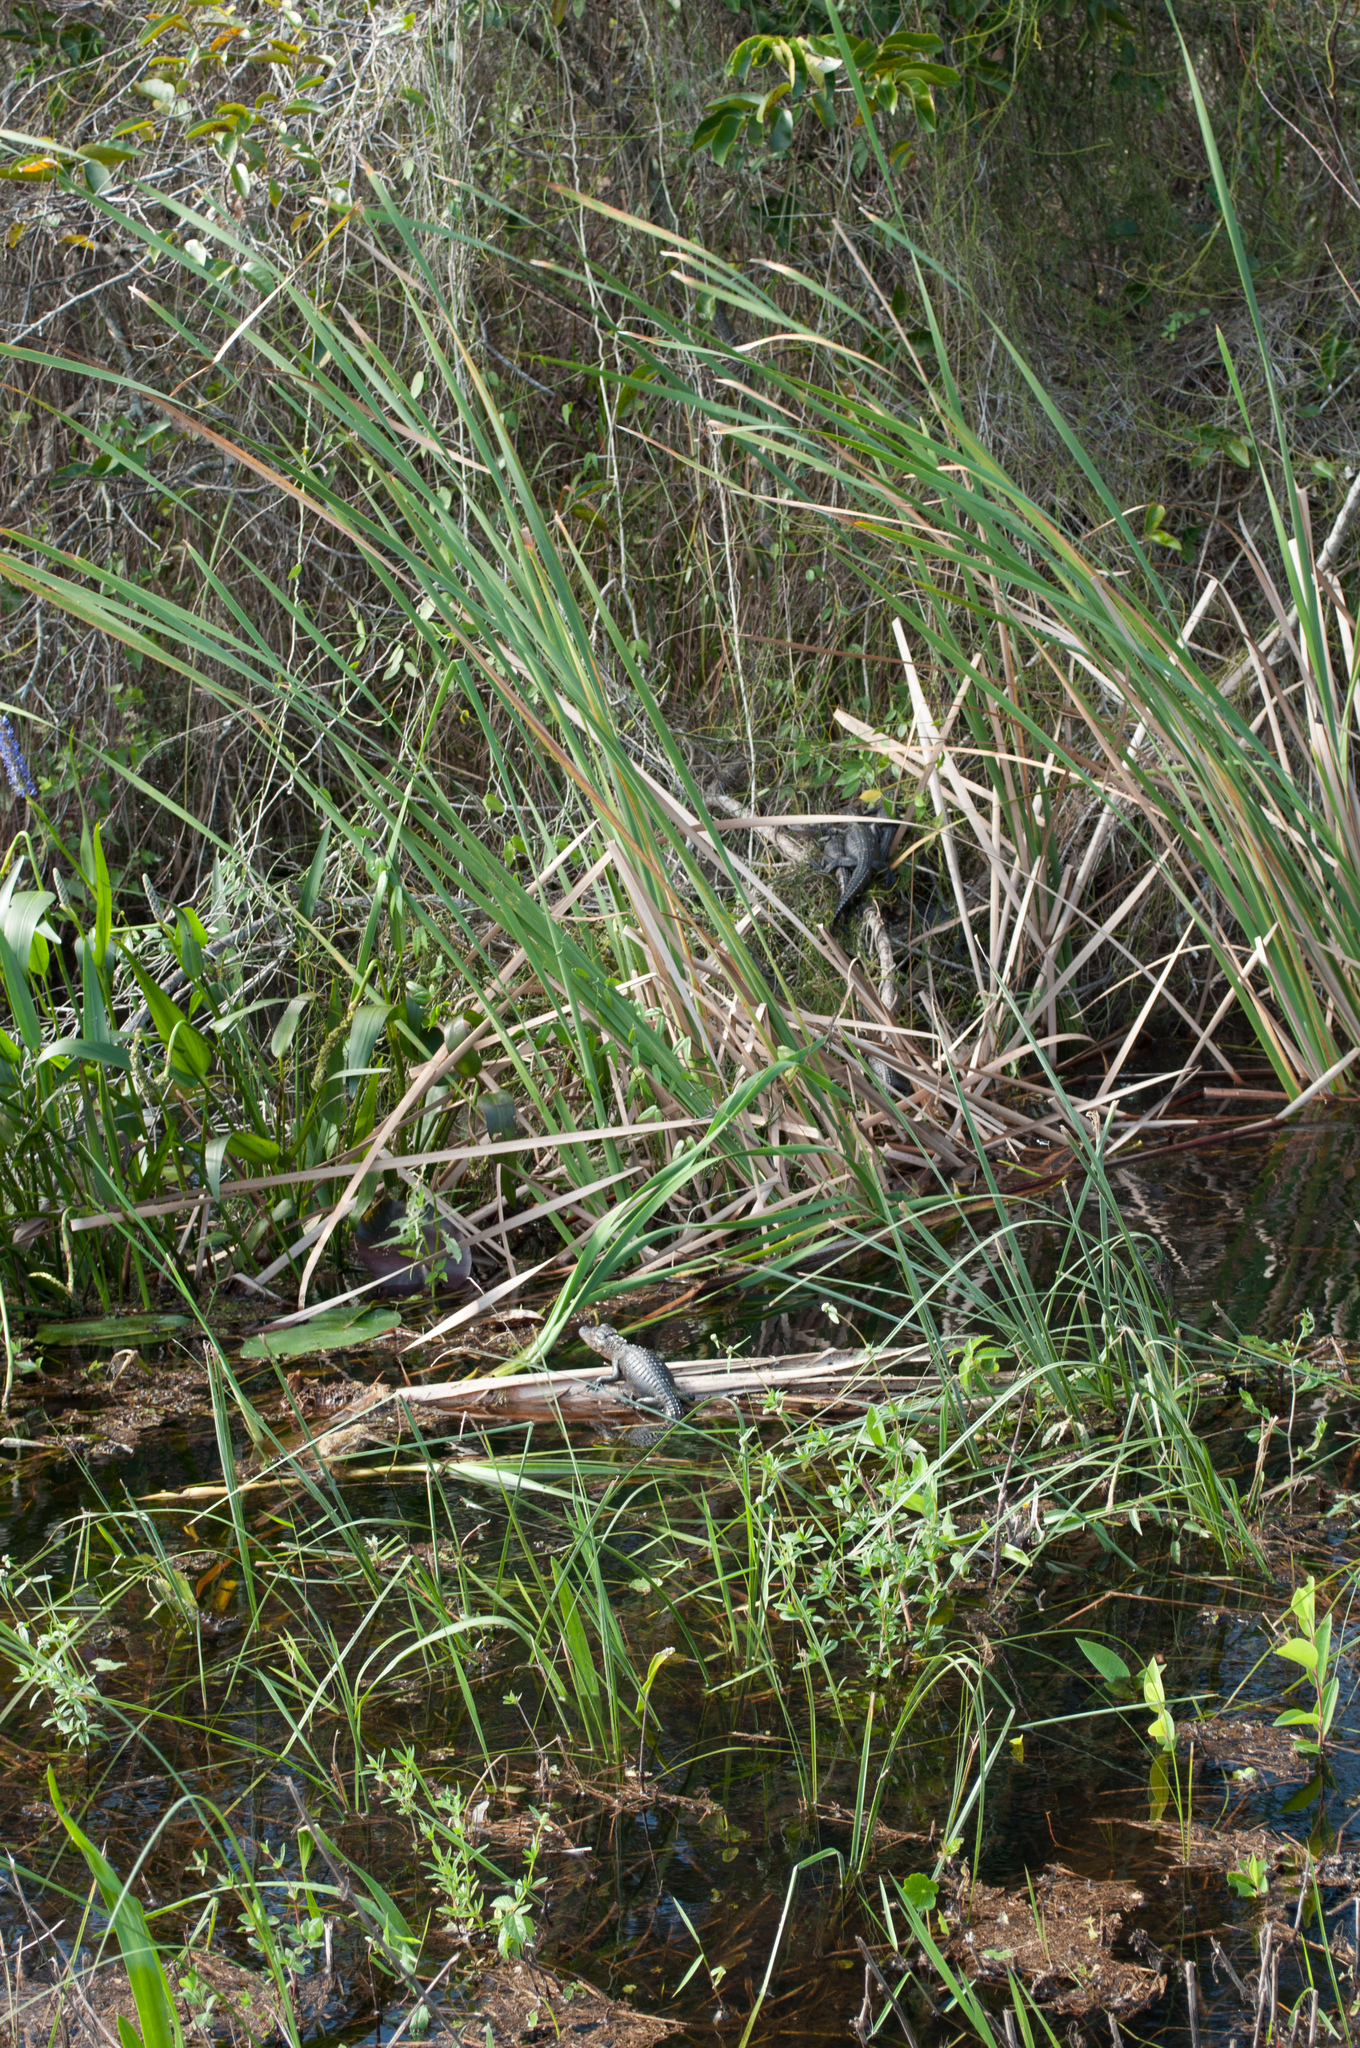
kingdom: Animalia
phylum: Chordata
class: Crocodylia
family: Alligatoridae
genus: Alligator
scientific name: Alligator mississippiensis
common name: American alligator
